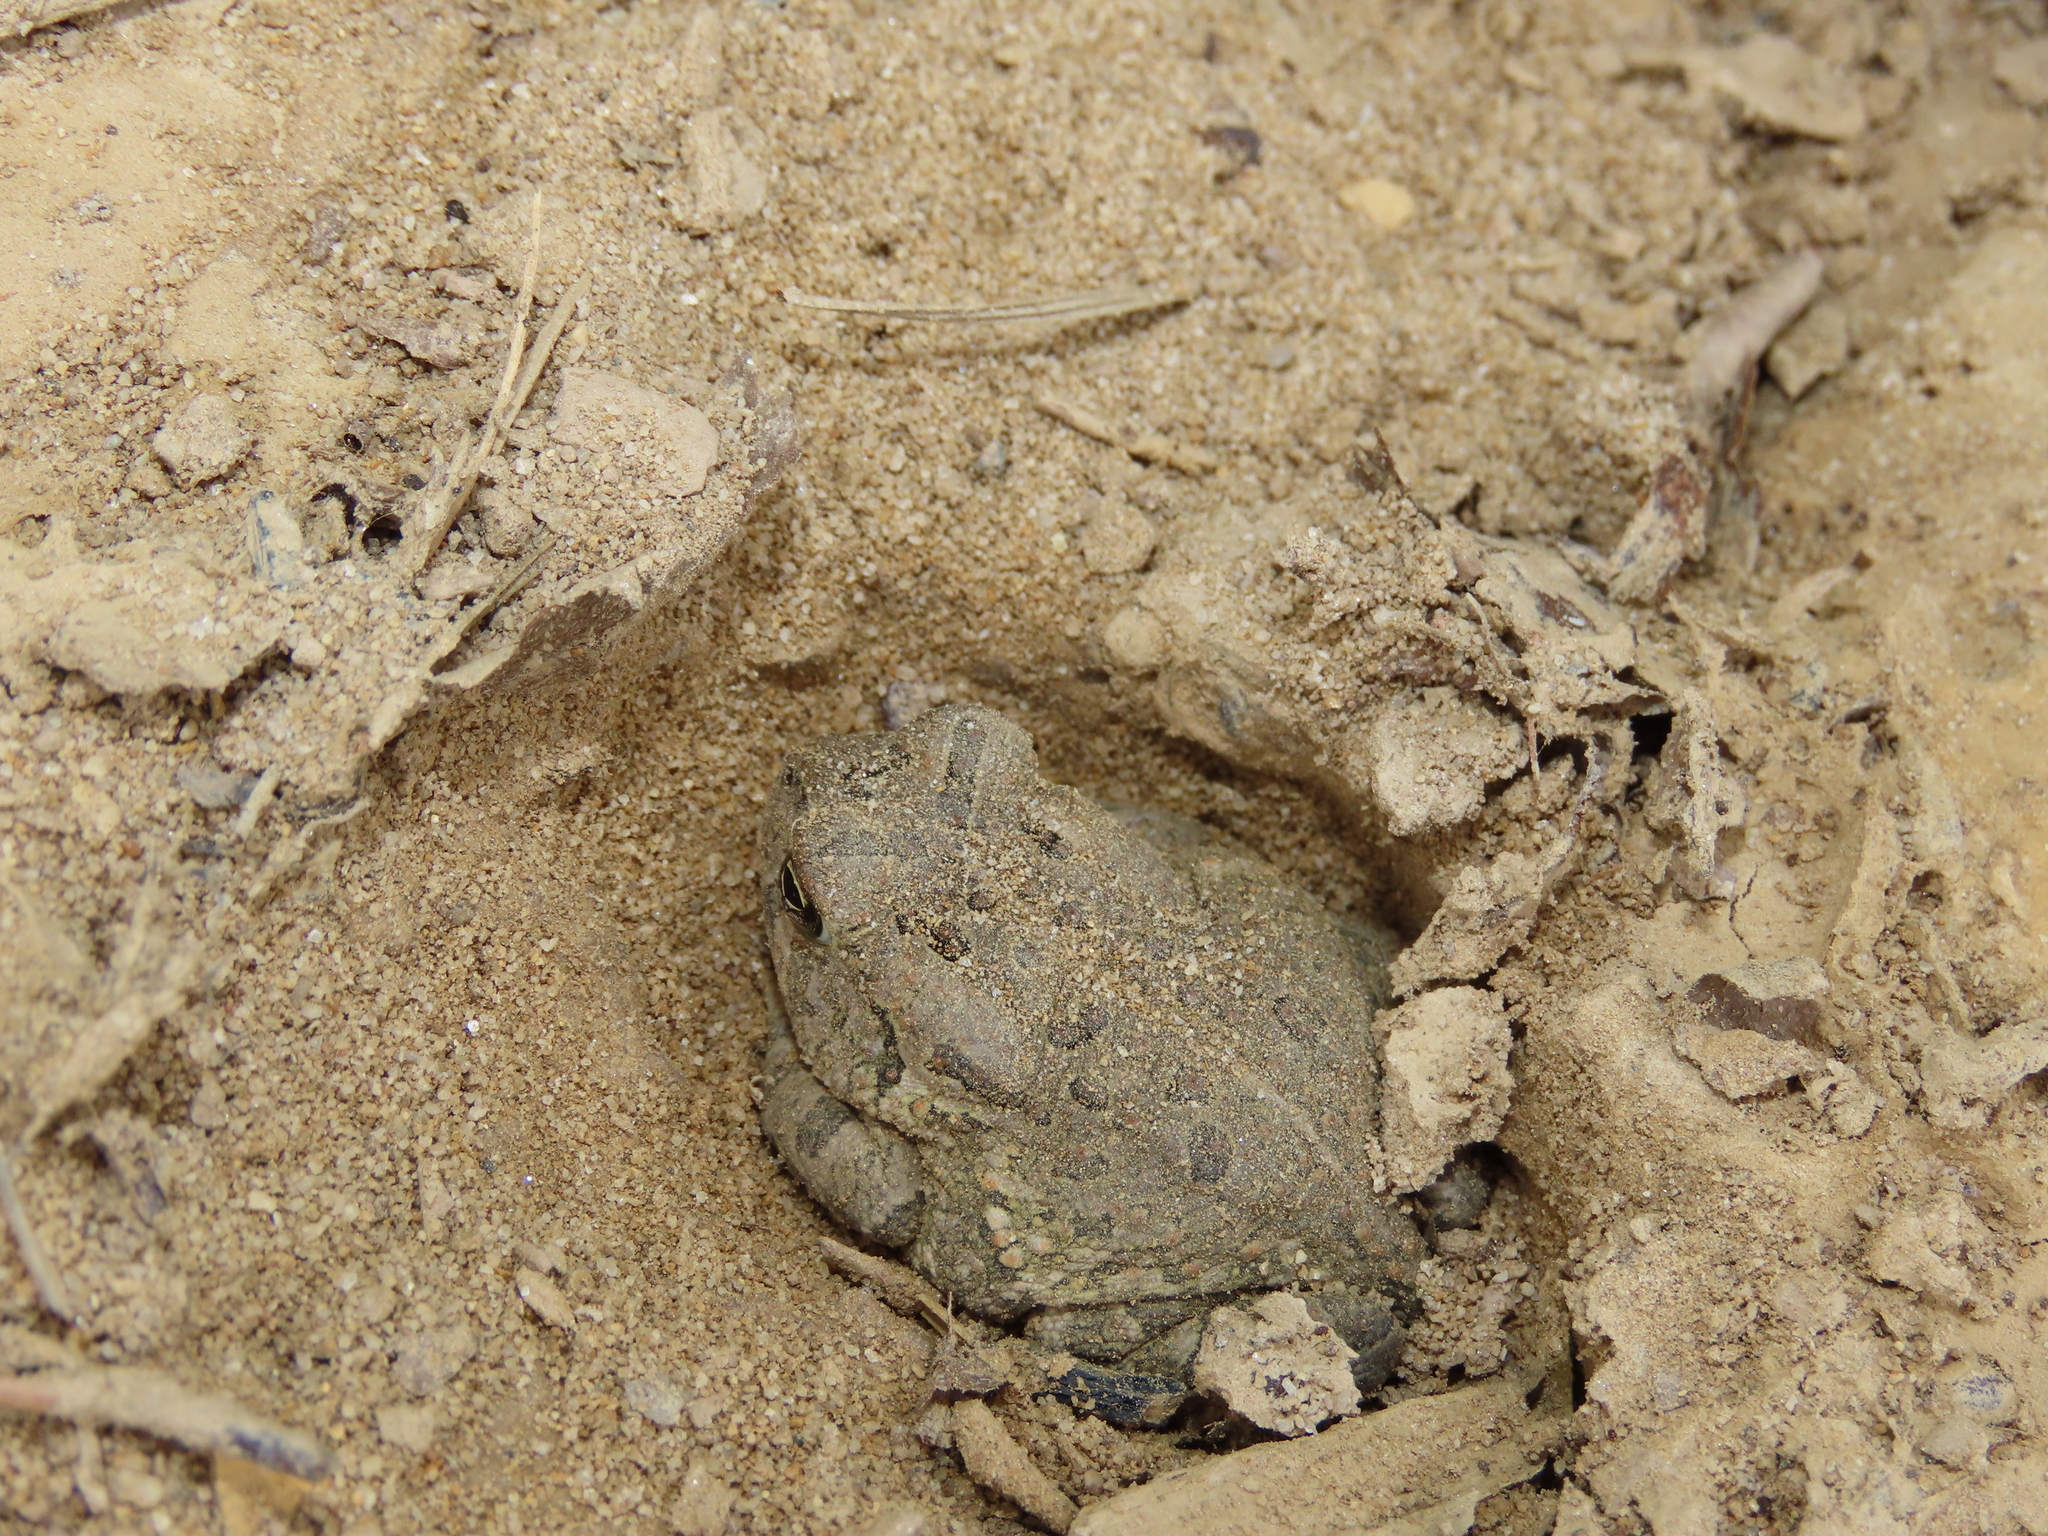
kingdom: Animalia
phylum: Chordata
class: Amphibia
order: Anura
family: Bufonidae
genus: Anaxyrus
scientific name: Anaxyrus fowleri
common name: Fowler's toad
